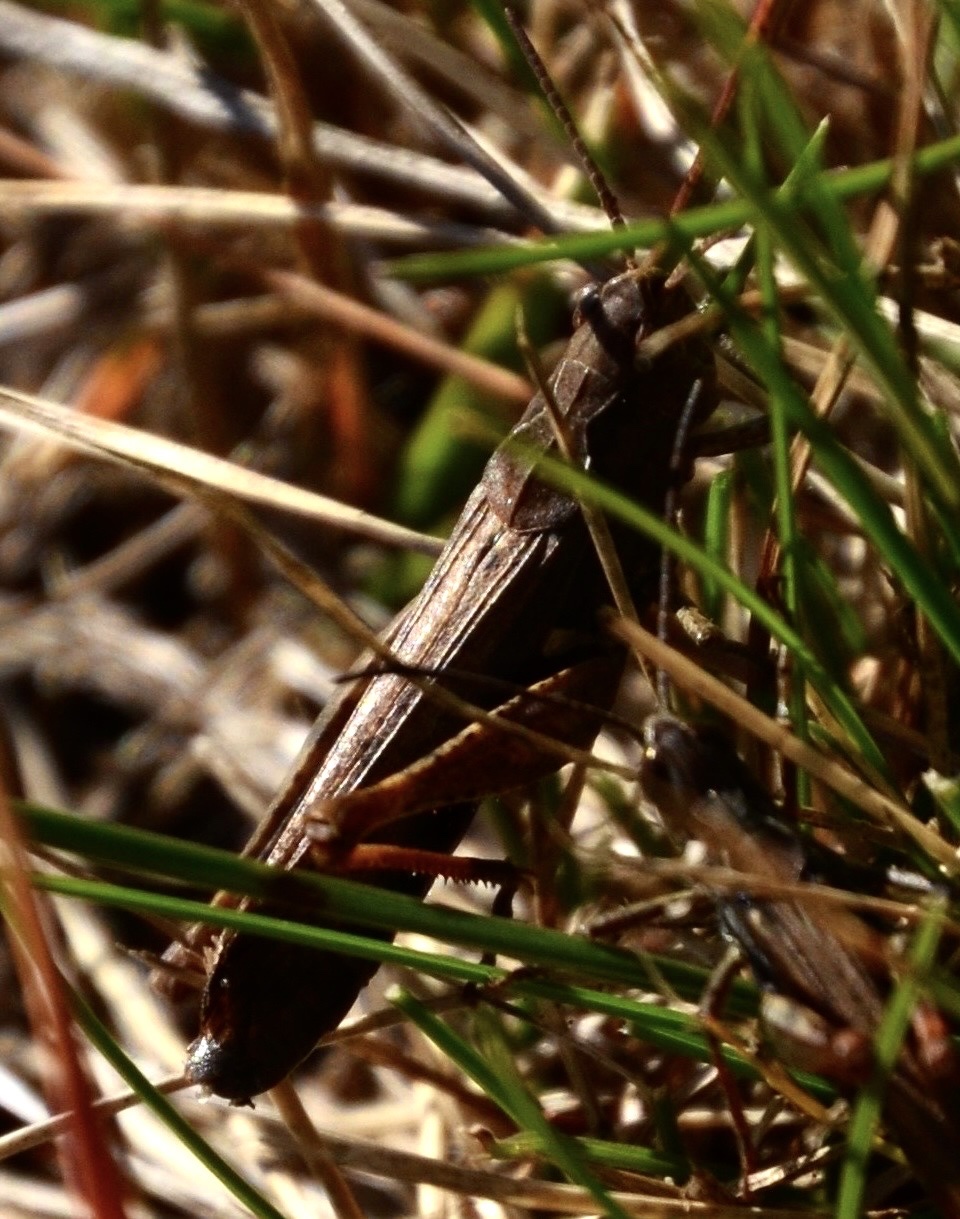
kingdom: Animalia
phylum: Arthropoda
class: Insecta
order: Orthoptera
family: Acrididae
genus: Chorthippus
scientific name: Chorthippus biguttulus
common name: Bow-winged grasshopper
